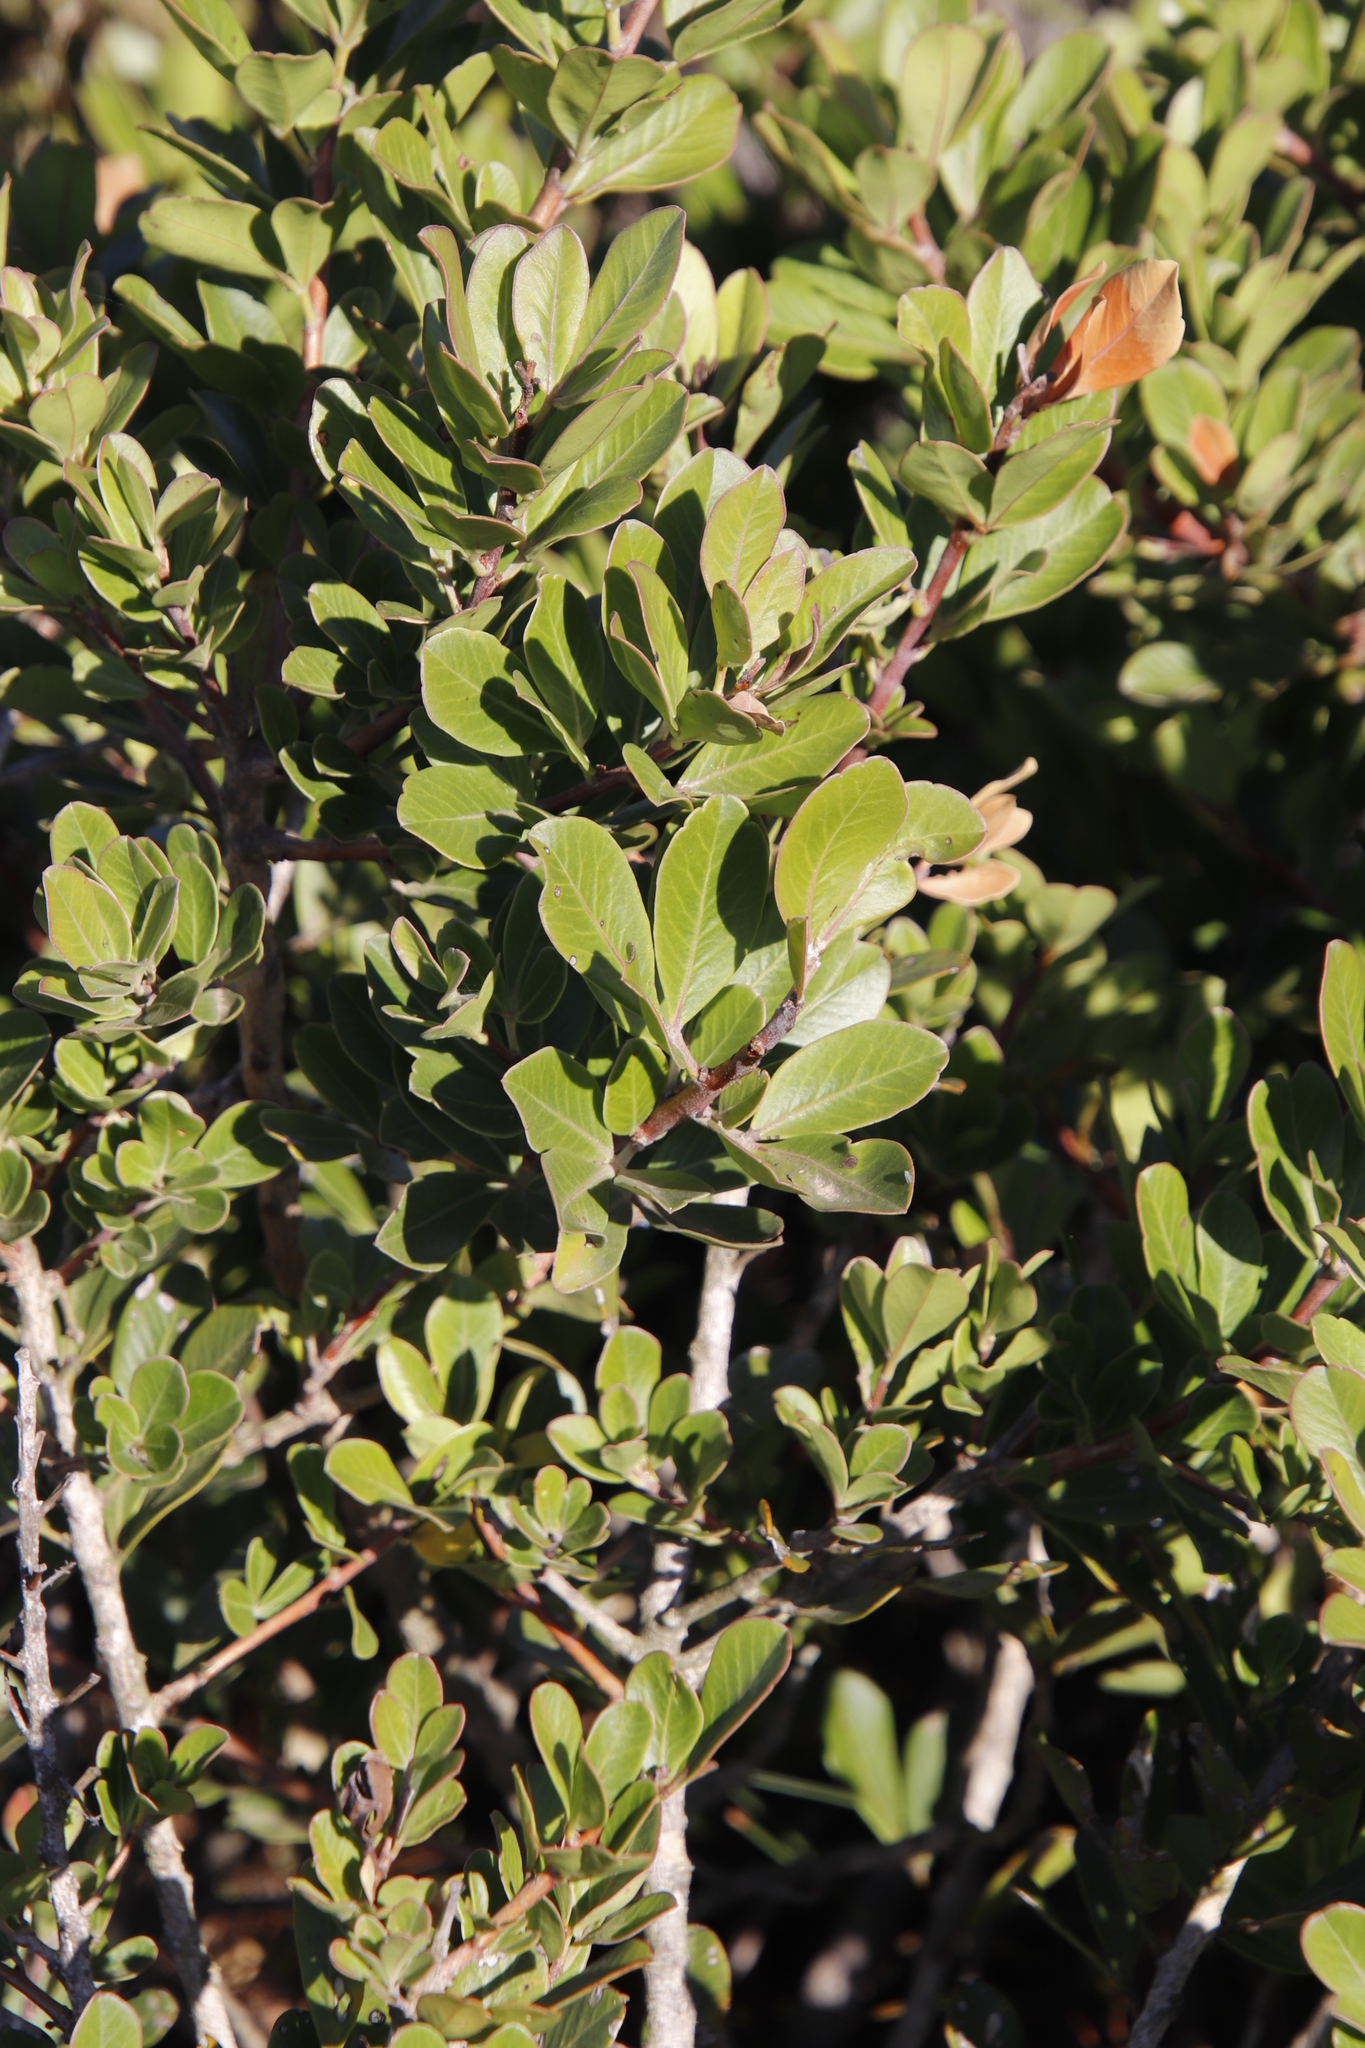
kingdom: Plantae
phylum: Tracheophyta
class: Magnoliopsida
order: Sapindales
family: Anacardiaceae
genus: Searsia
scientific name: Searsia lucida
